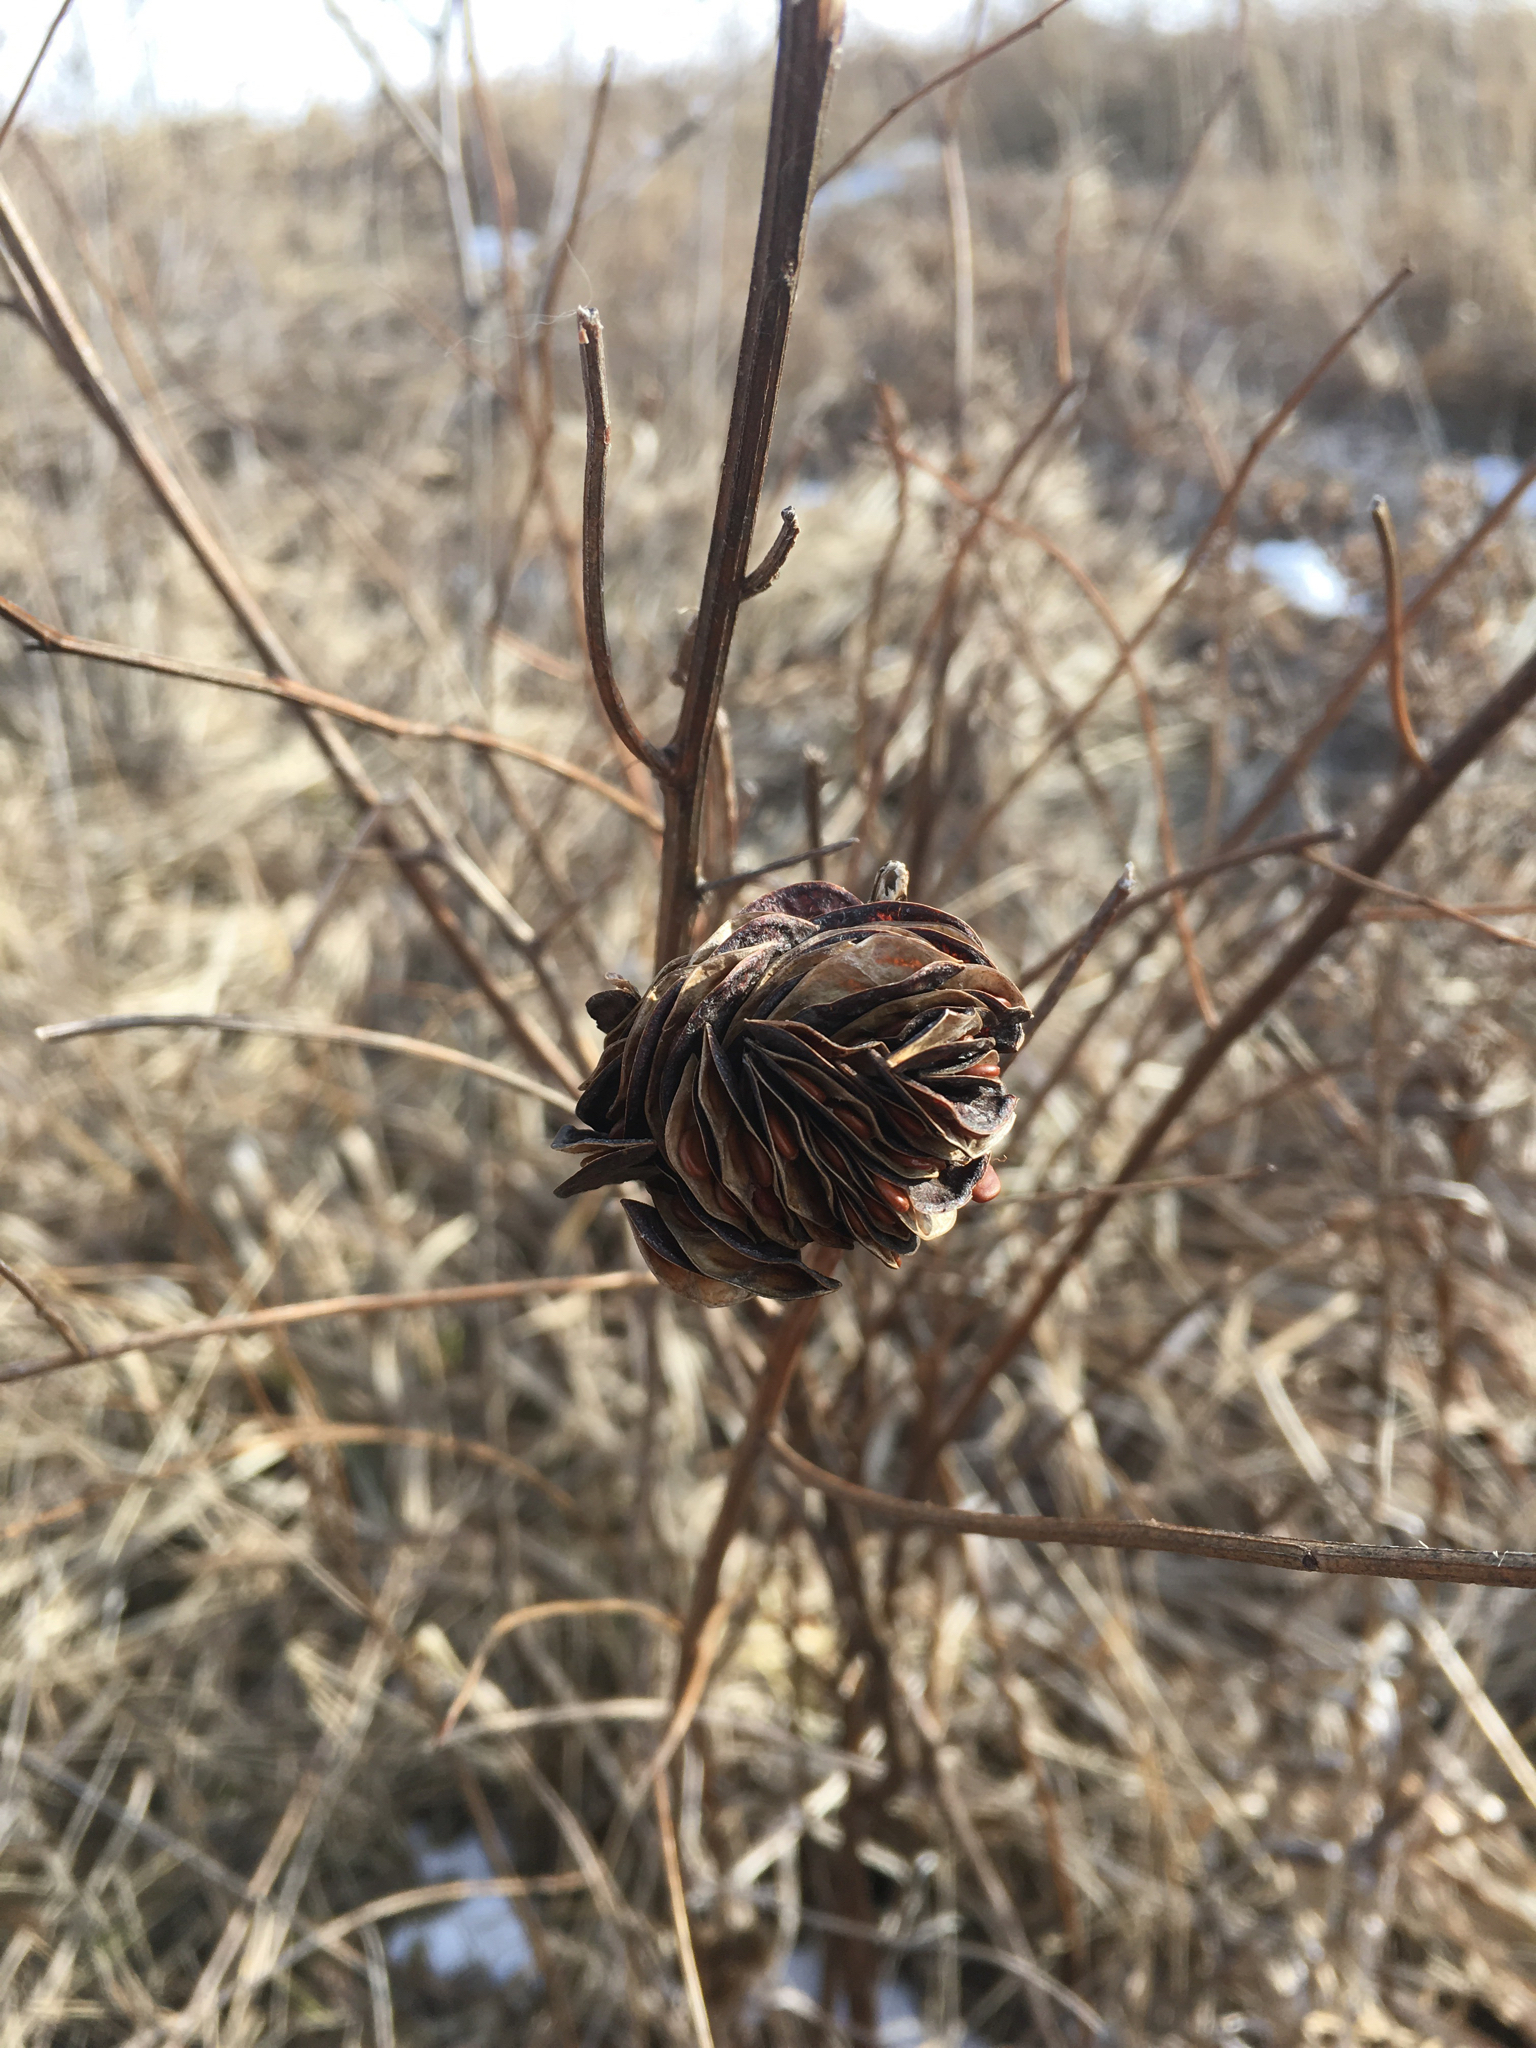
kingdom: Plantae
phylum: Tracheophyta
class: Magnoliopsida
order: Fabales
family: Fabaceae
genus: Desmanthus
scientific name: Desmanthus illinoensis
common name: Illinois bundle-flower
